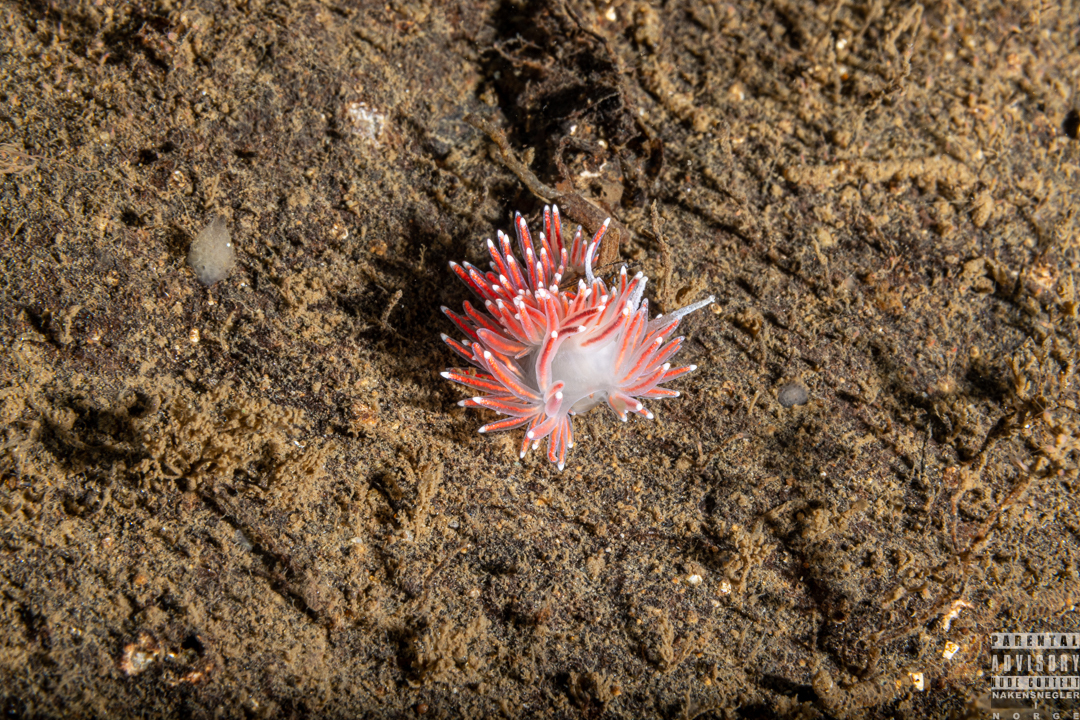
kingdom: Animalia
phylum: Mollusca
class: Gastropoda
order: Nudibranchia
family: Flabellinidae
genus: Carronella
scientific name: Carronella pellucida
